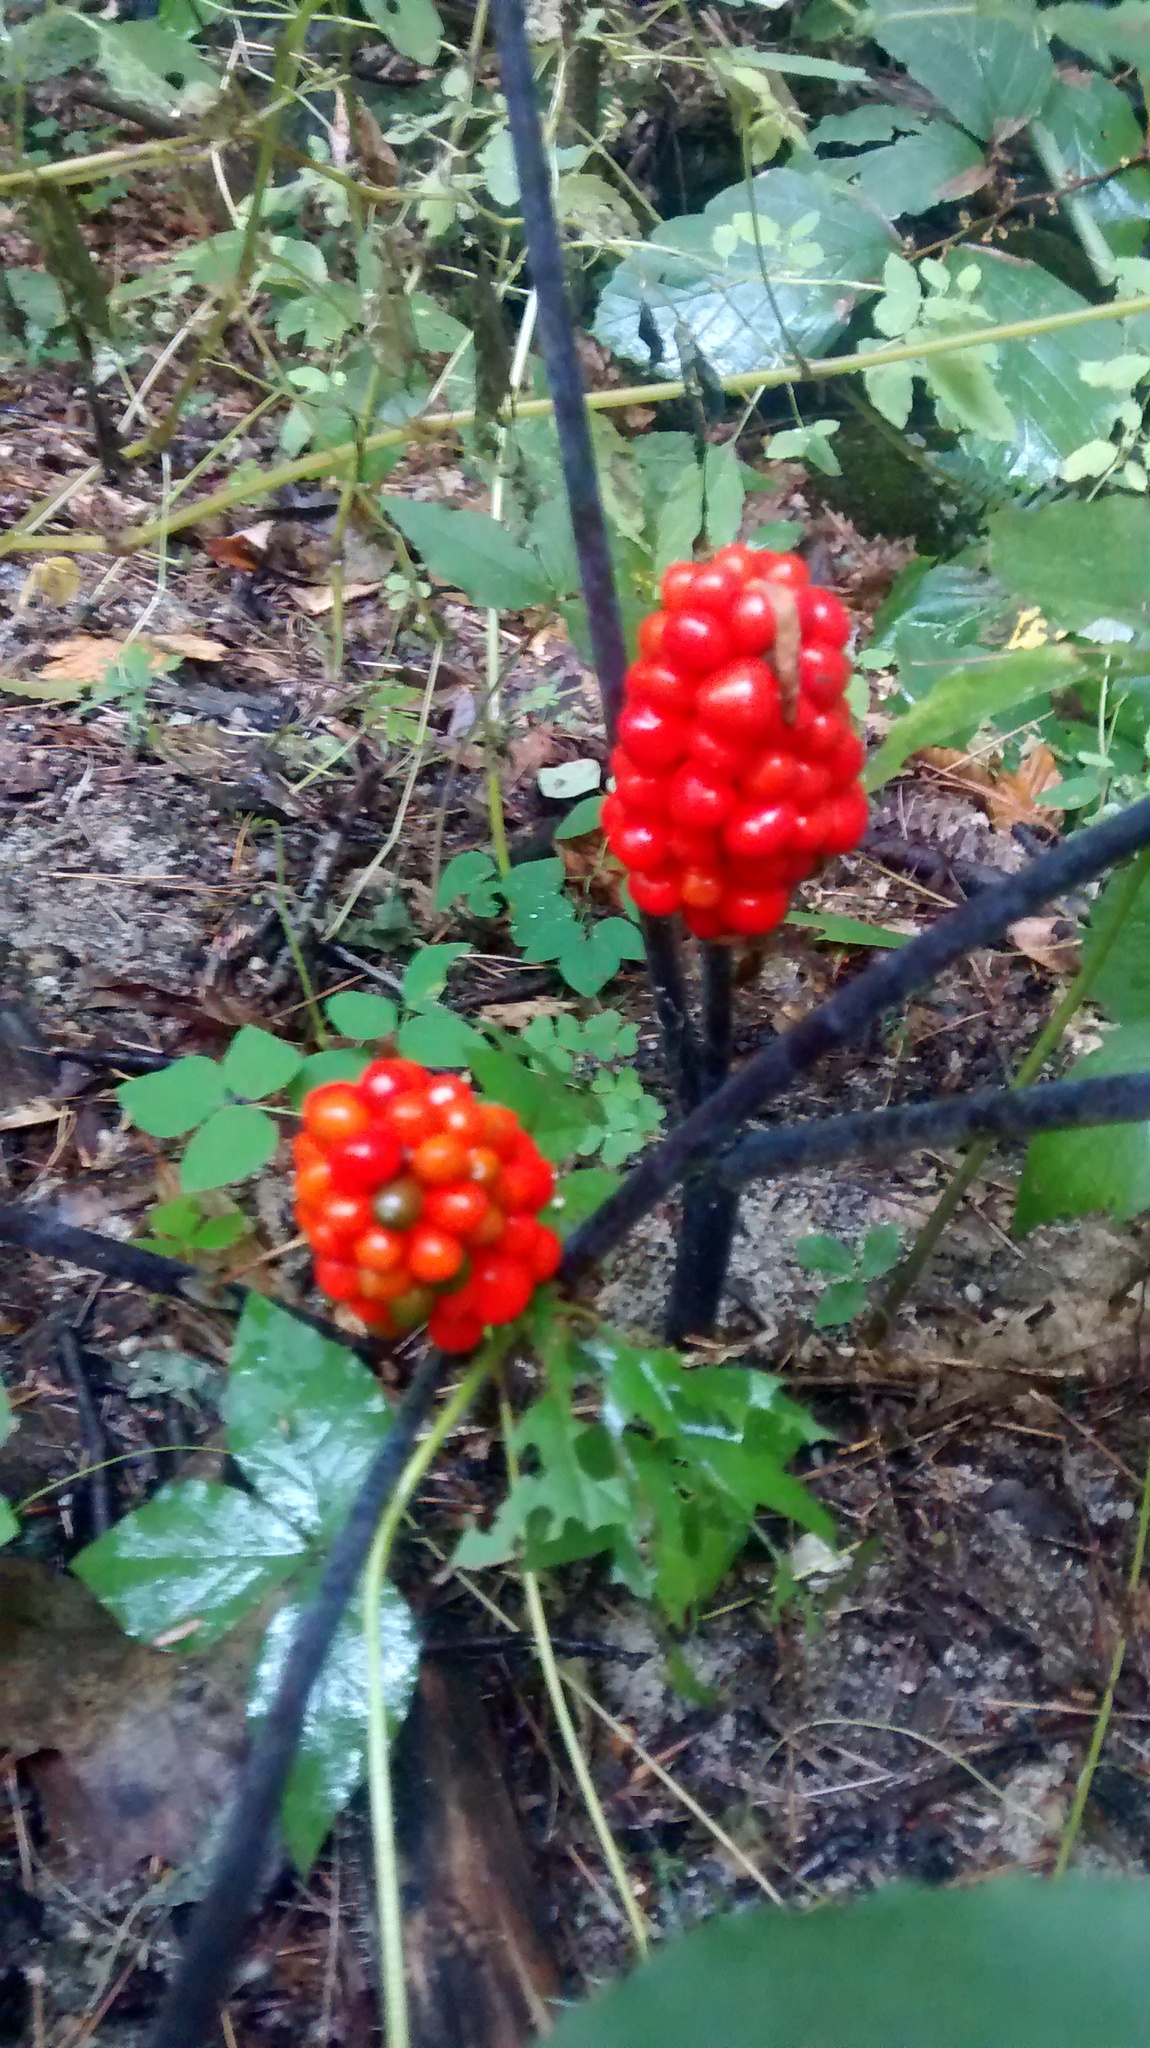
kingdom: Plantae
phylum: Tracheophyta
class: Liliopsida
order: Alismatales
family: Araceae
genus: Arisaema
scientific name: Arisaema triphyllum
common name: Jack-in-the-pulpit
